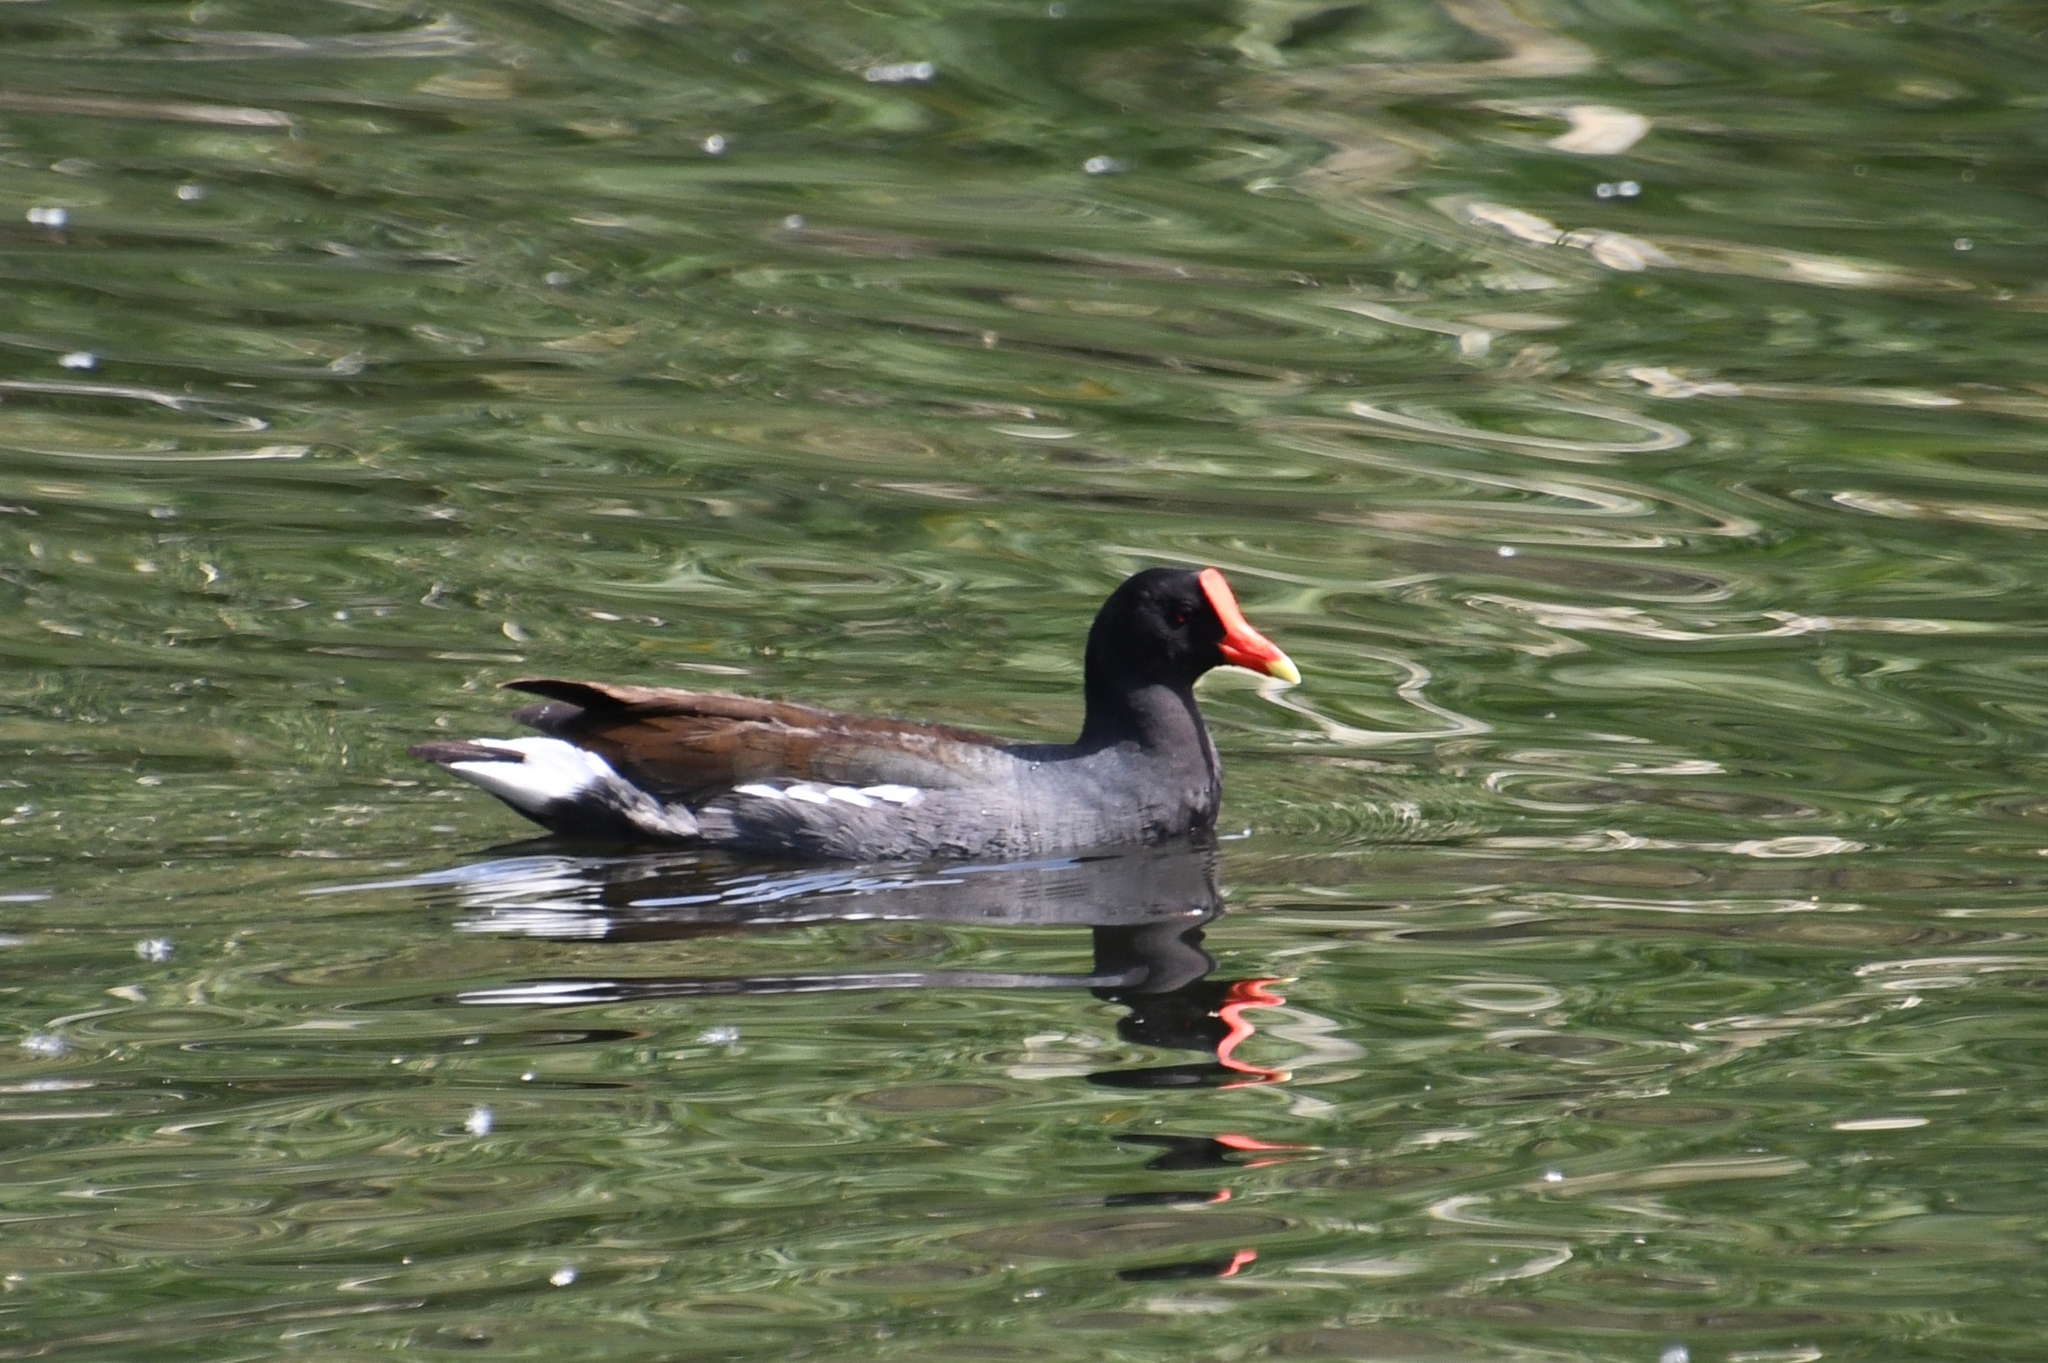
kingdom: Animalia
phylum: Chordata
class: Aves
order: Gruiformes
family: Rallidae
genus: Gallinula
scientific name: Gallinula chloropus
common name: Common moorhen
